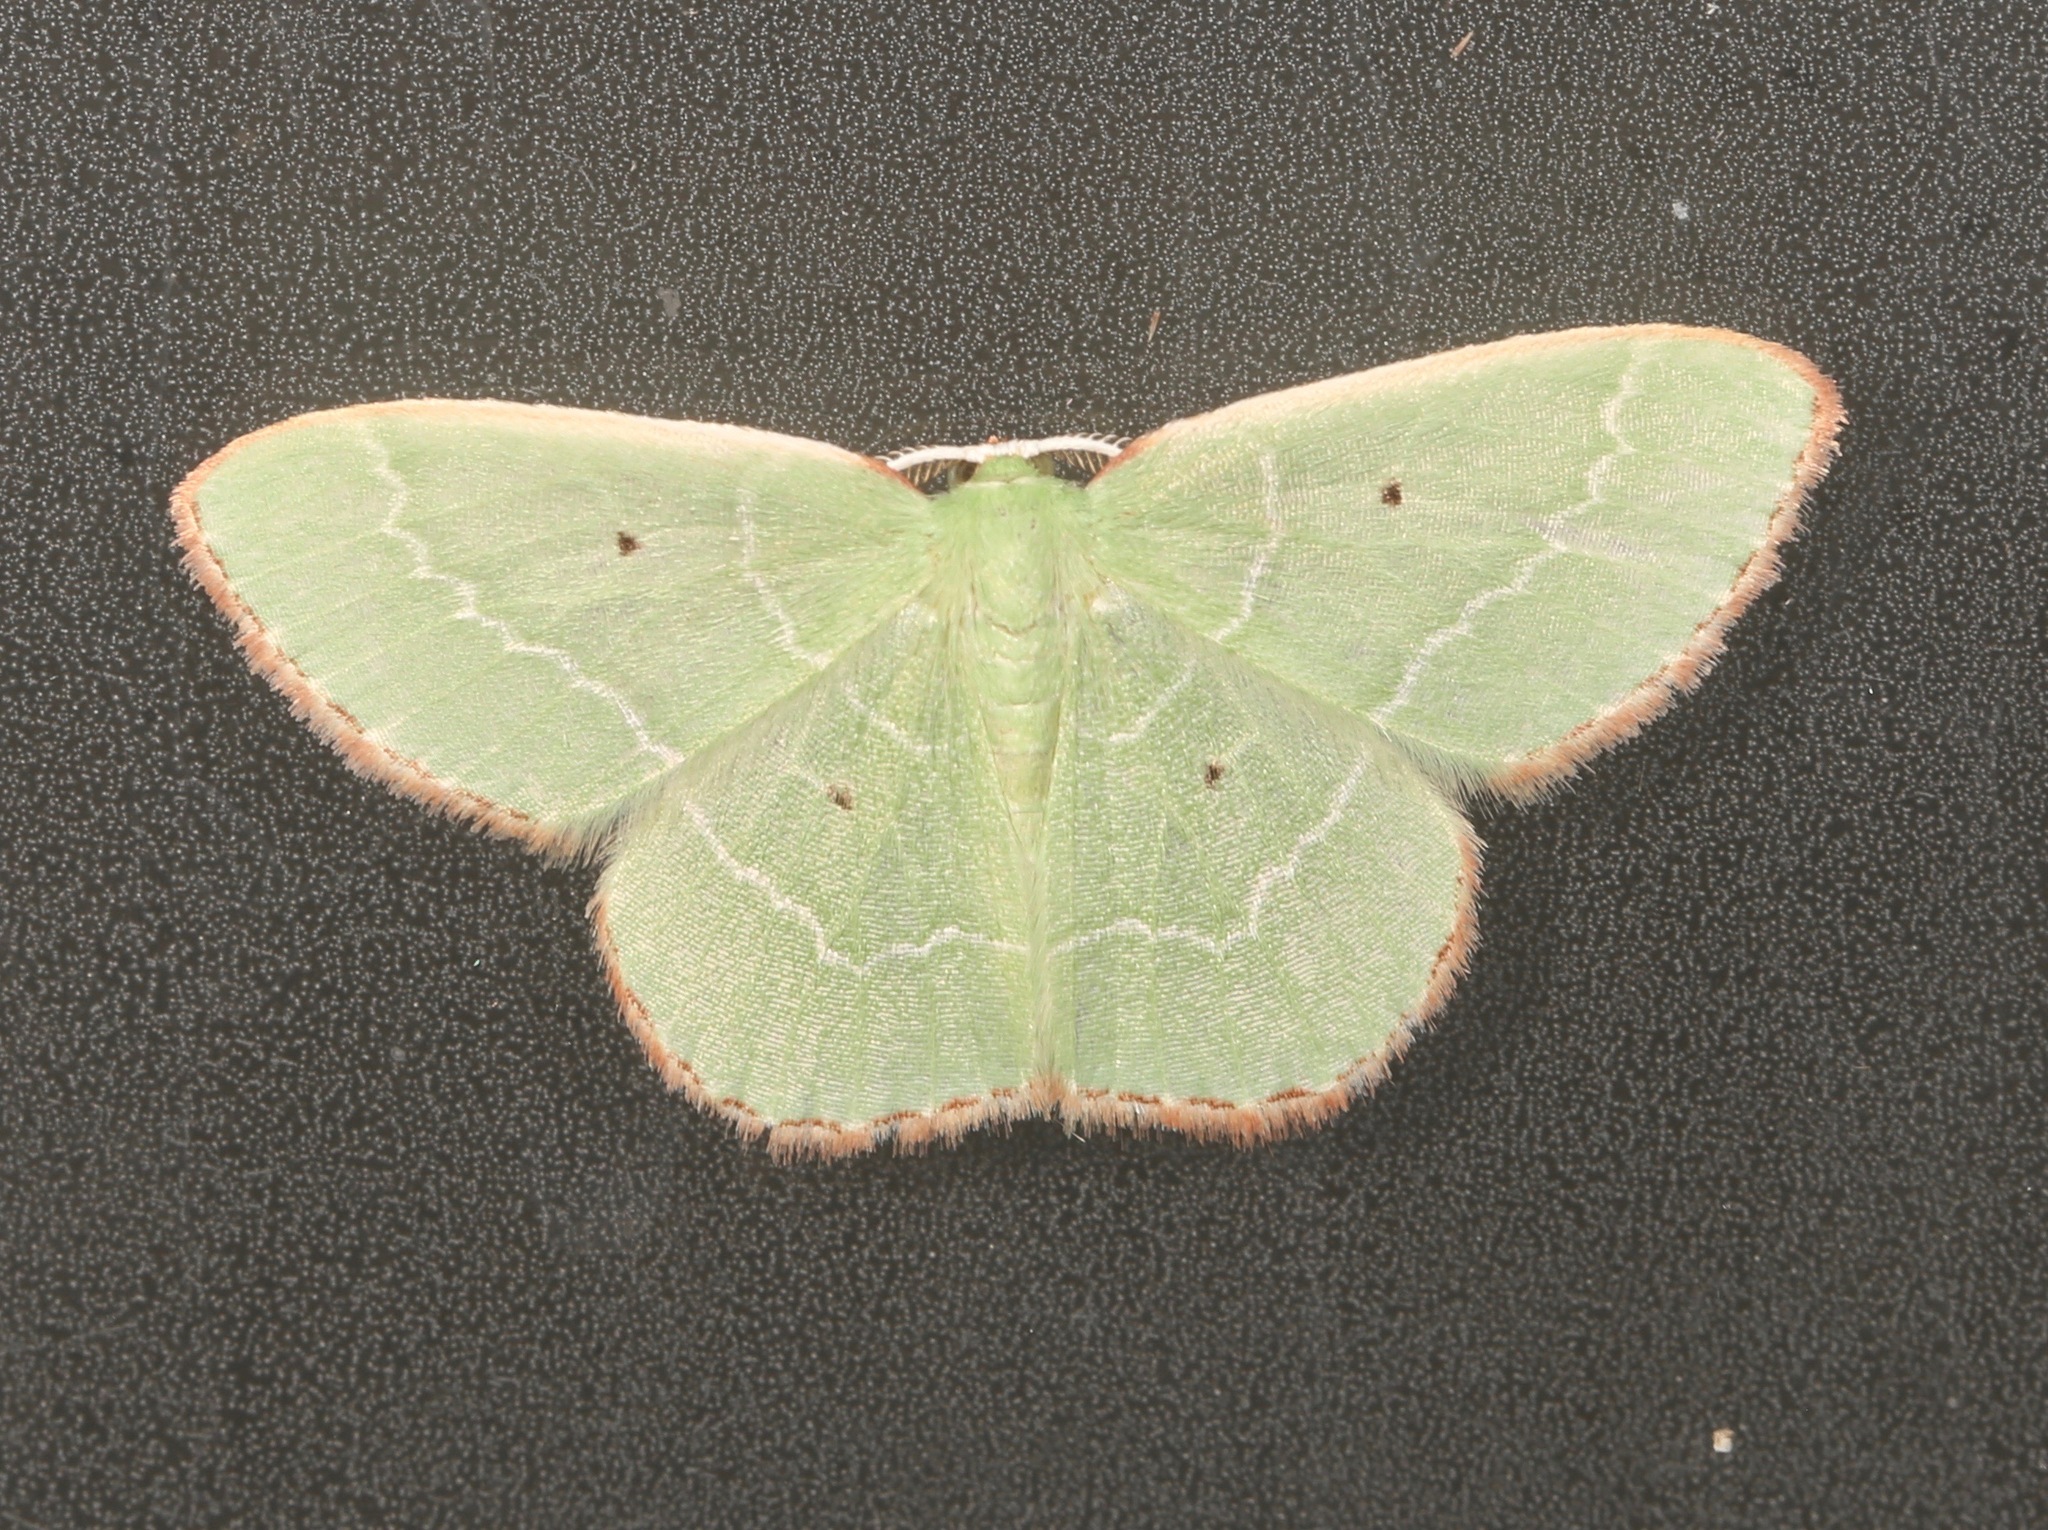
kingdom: Animalia
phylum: Arthropoda
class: Insecta
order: Lepidoptera
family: Geometridae
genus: Nemoria
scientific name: Nemoria elfa
